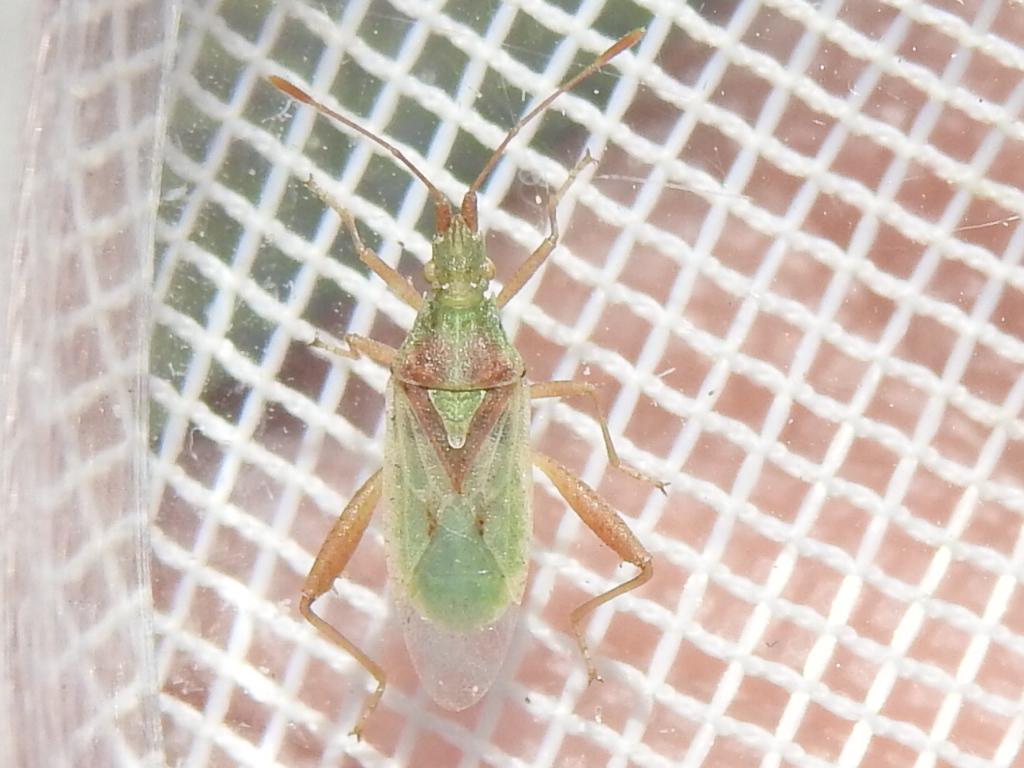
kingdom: Animalia
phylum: Arthropoda
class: Insecta
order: Hemiptera
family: Rhopalidae
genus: Harmostes
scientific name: Harmostes reflexulus
